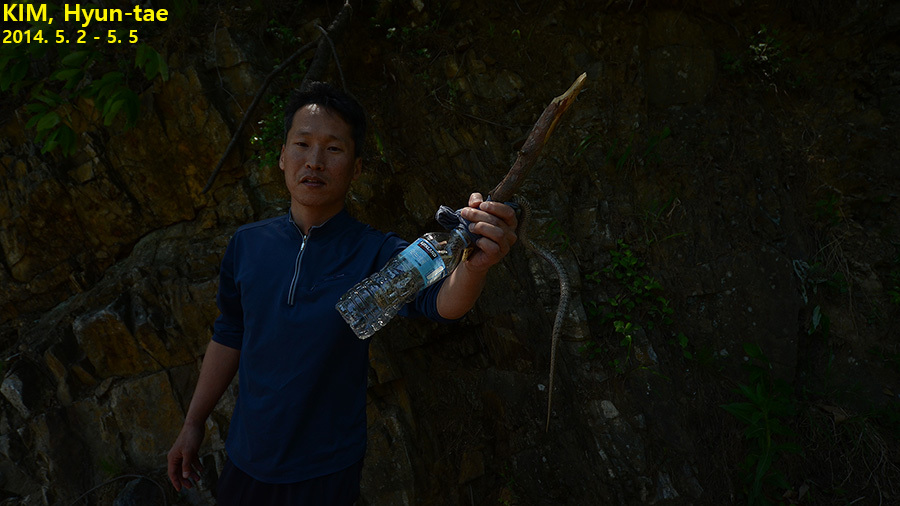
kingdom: Animalia
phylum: Chordata
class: Squamata
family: Colubridae
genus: Elaphe
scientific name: Elaphe dione
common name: Dione ratsnake
